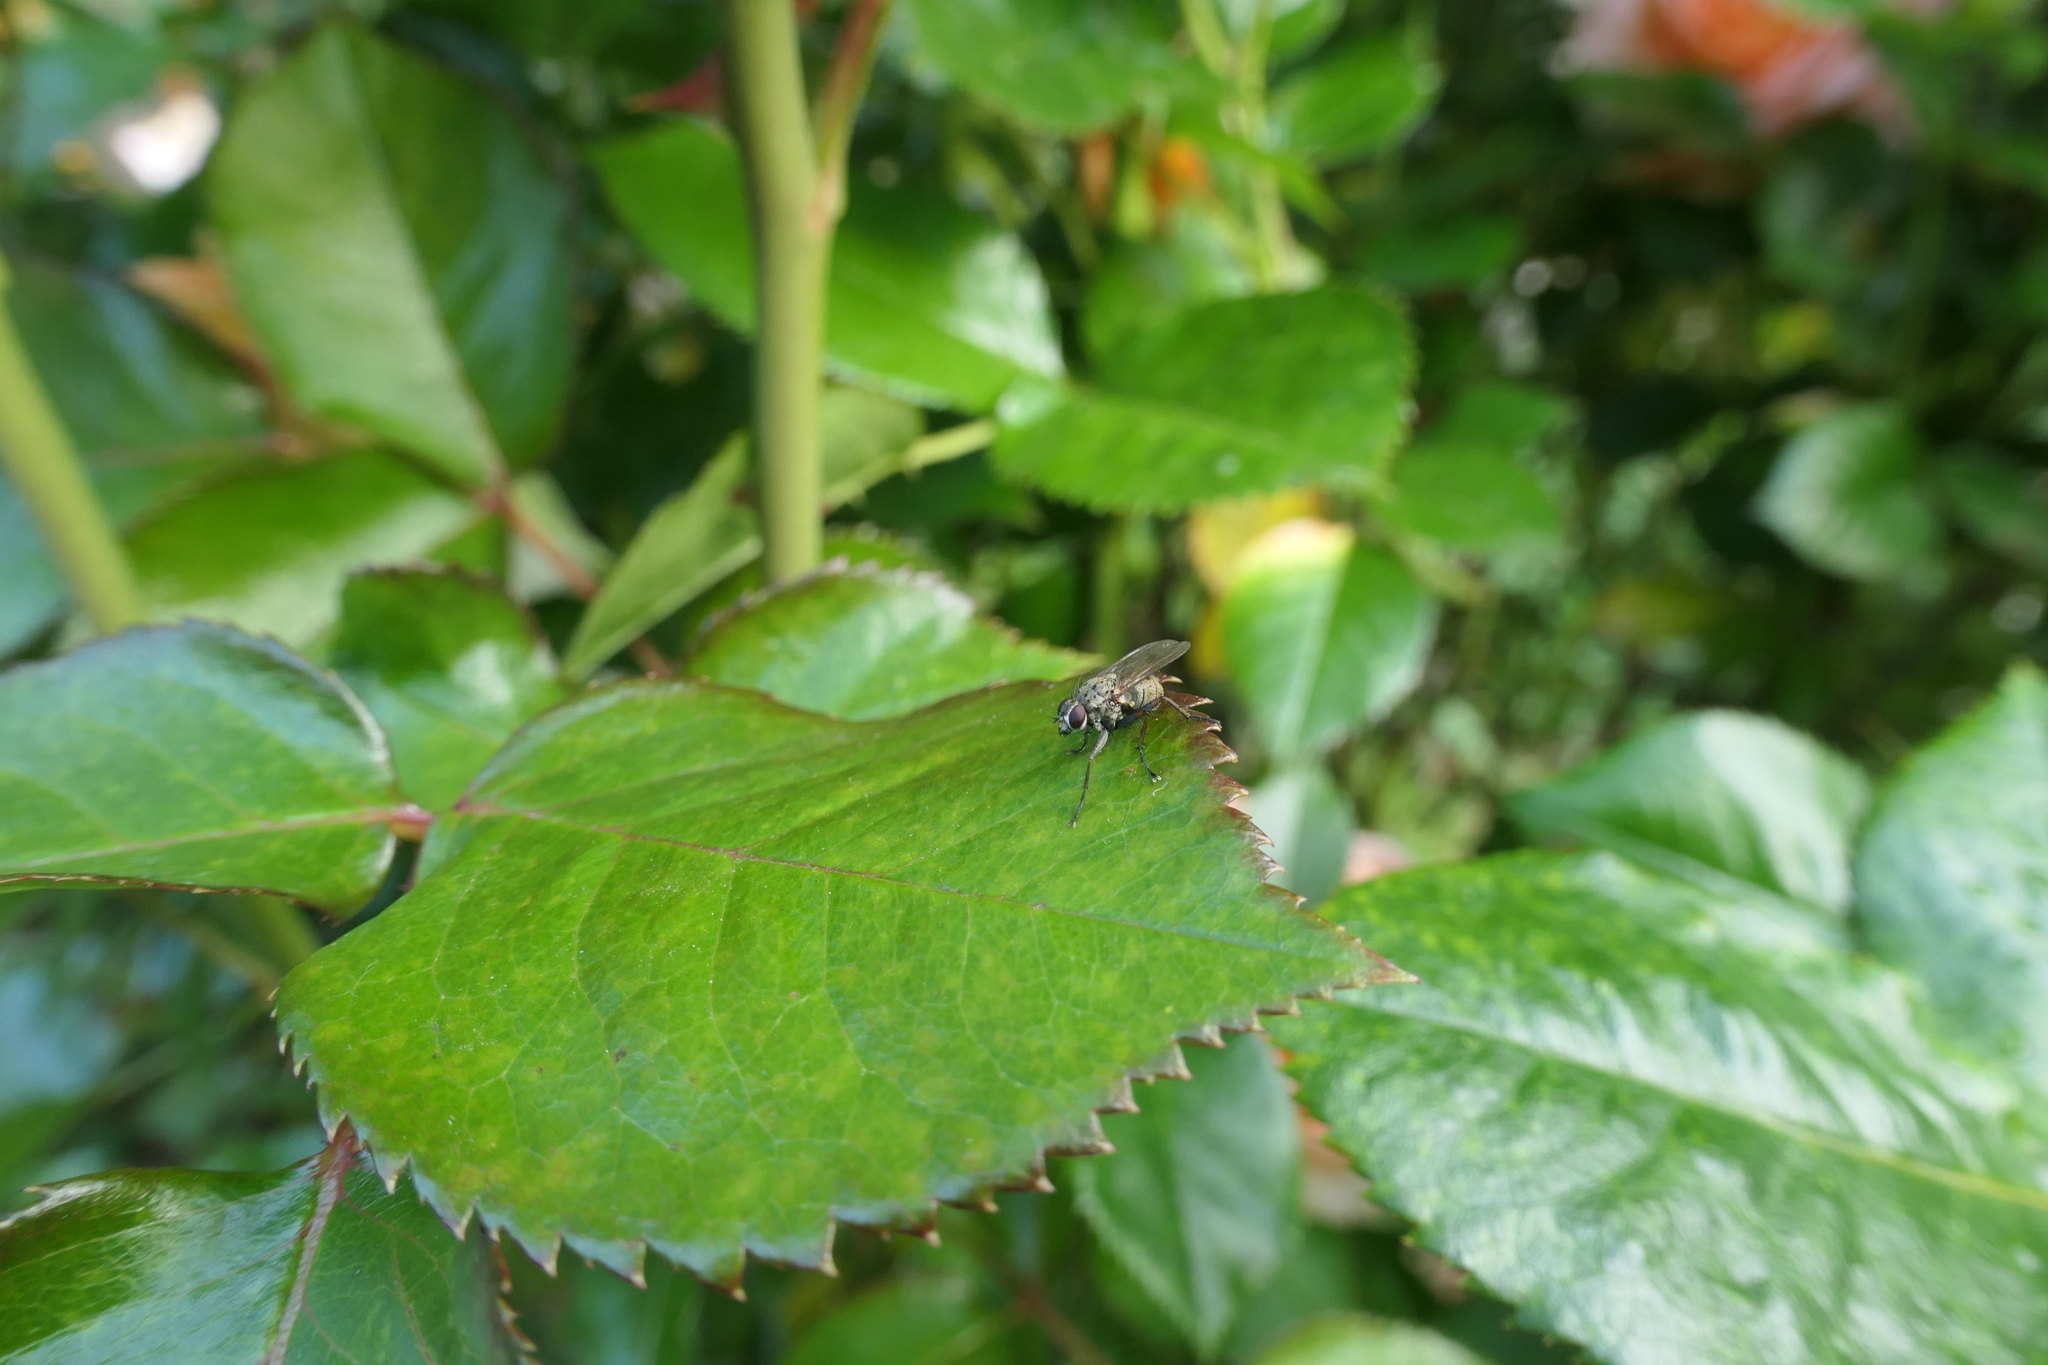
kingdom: Animalia
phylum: Arthropoda
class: Insecta
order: Diptera
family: Muscidae
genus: Coenosia
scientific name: Coenosia tigrina
